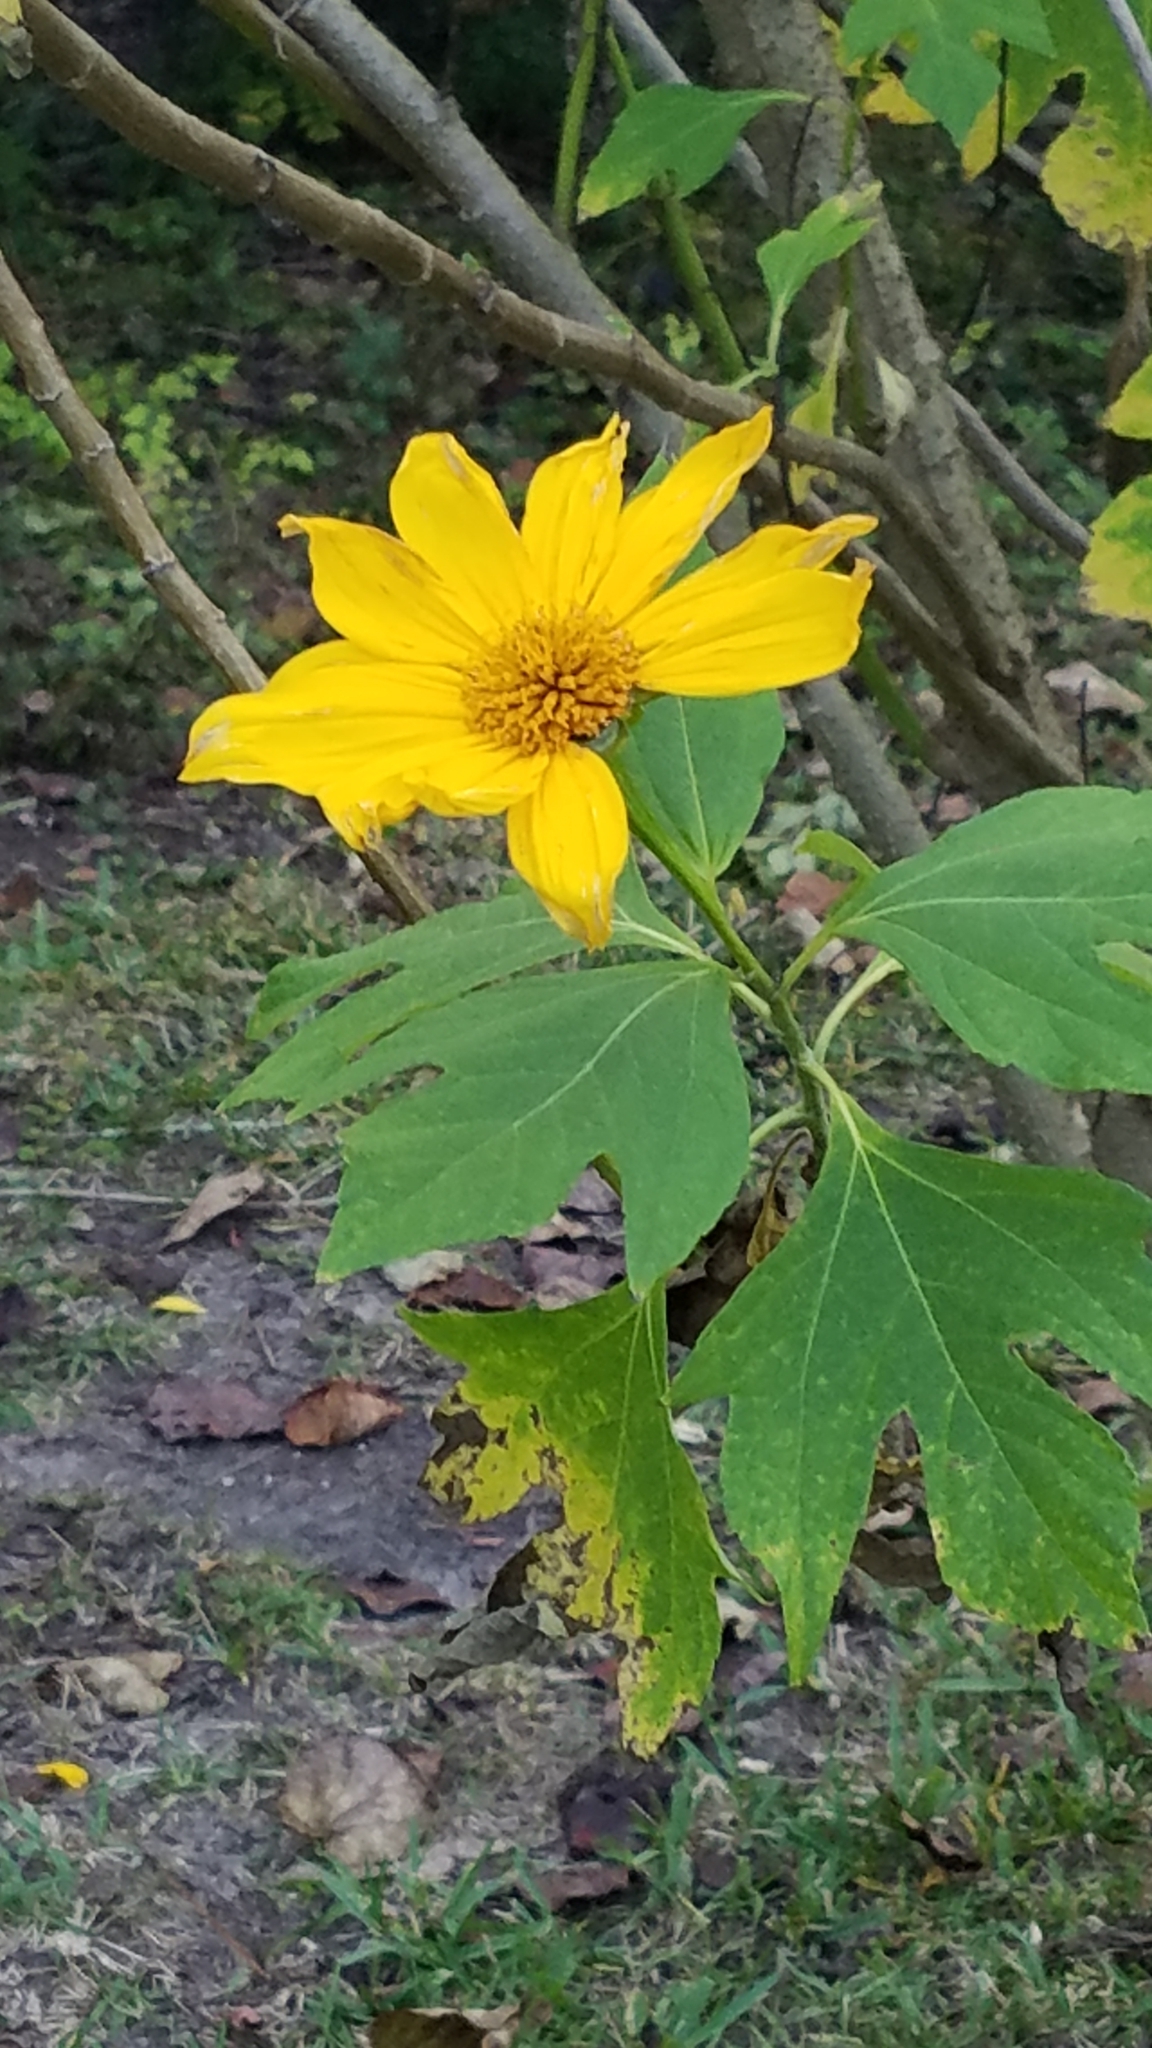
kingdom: Plantae
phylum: Tracheophyta
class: Magnoliopsida
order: Asterales
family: Asteraceae
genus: Tithonia
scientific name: Tithonia diversifolia
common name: Tree marigold
